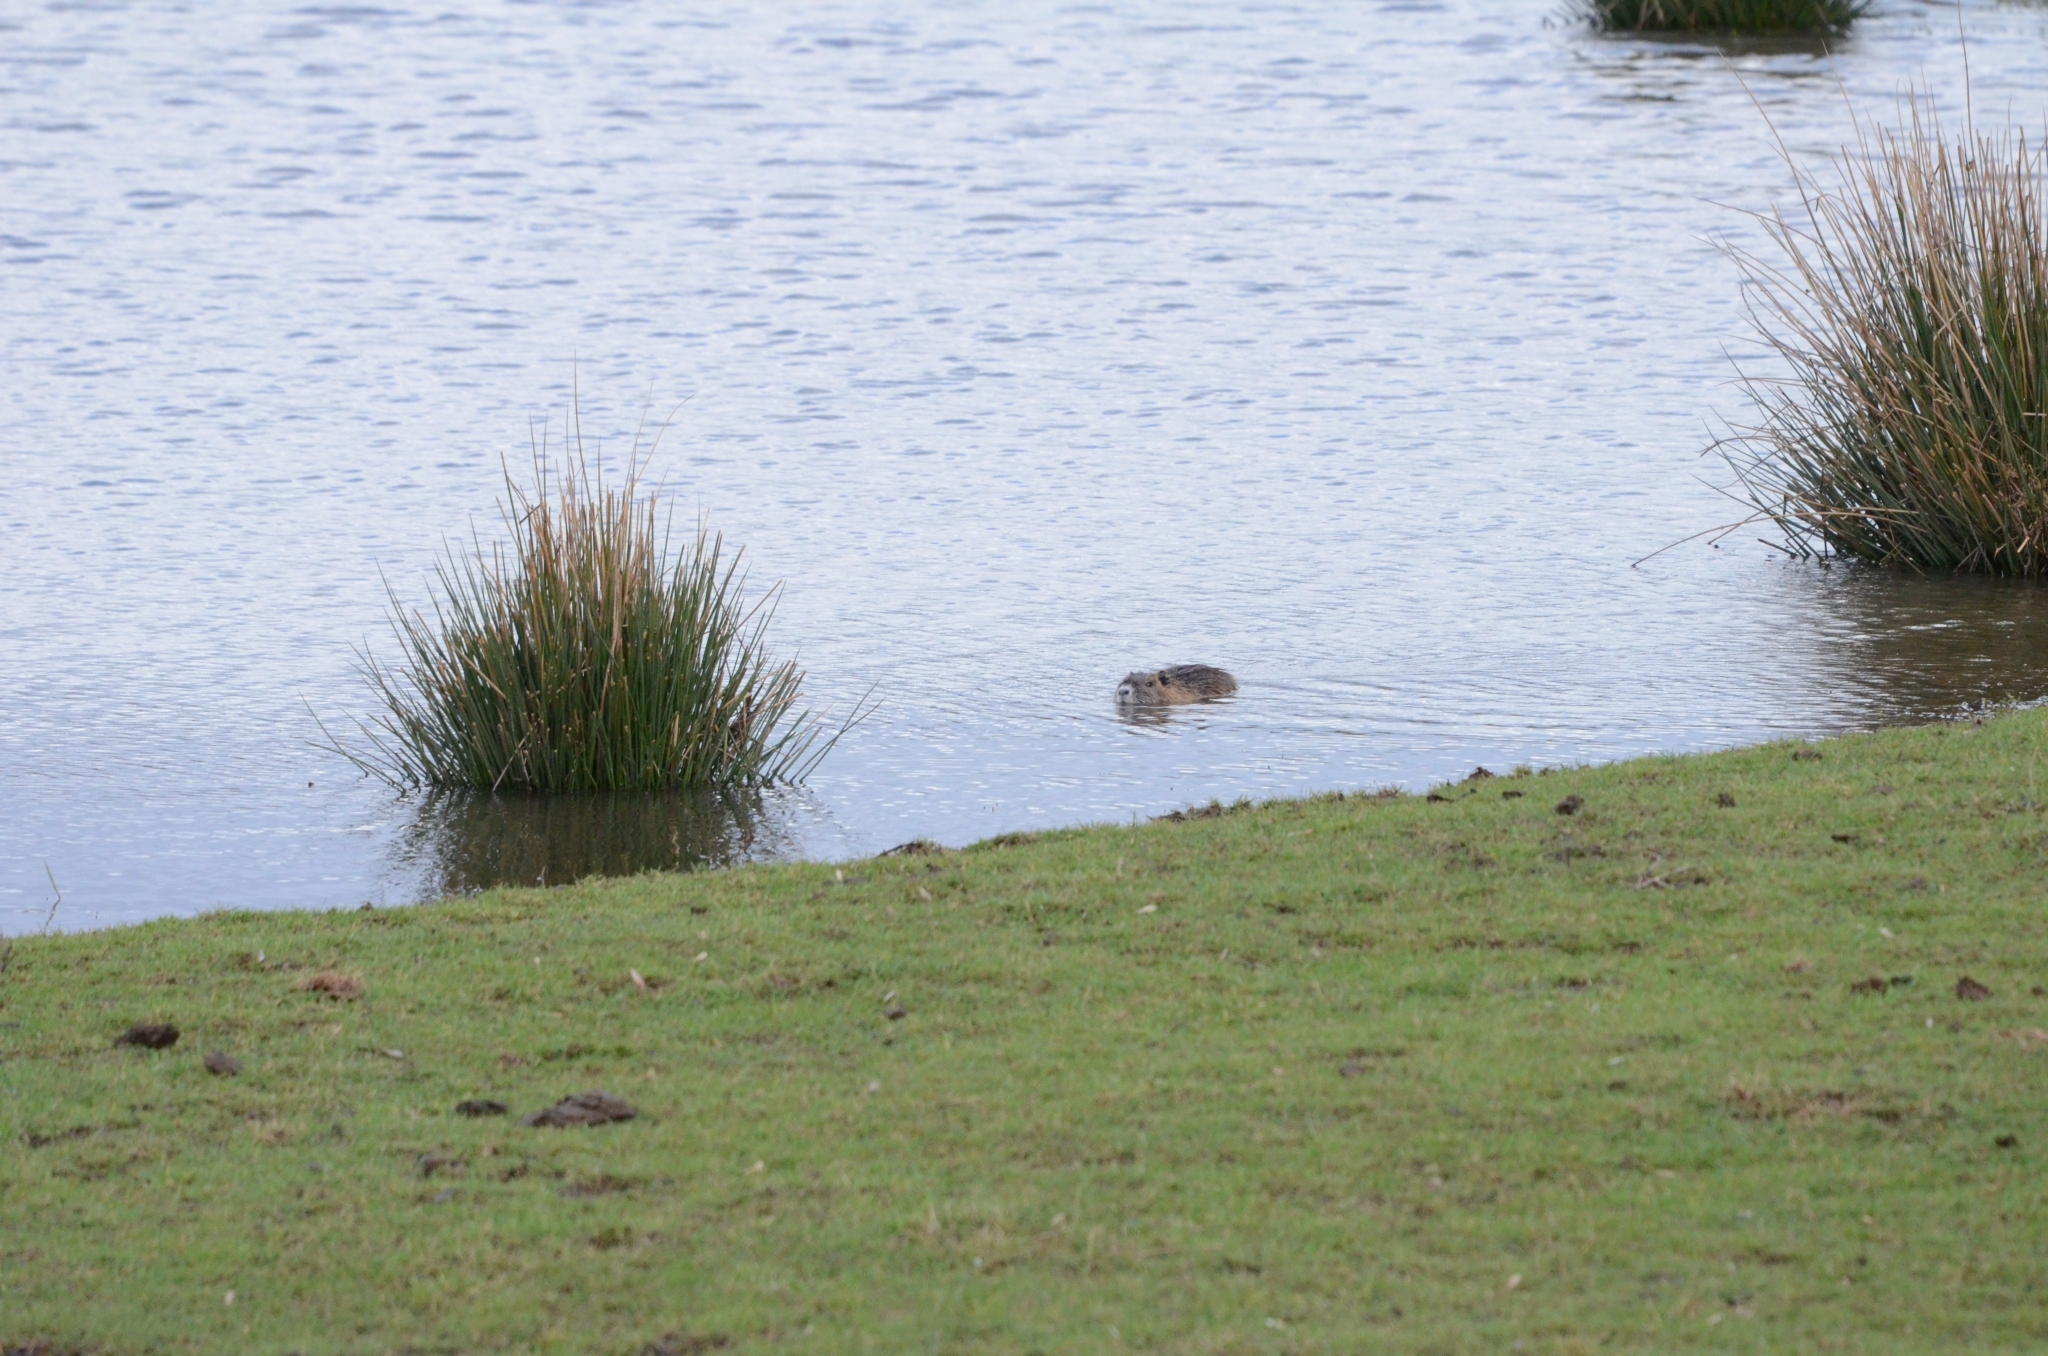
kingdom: Animalia
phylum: Chordata
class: Mammalia
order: Rodentia
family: Myocastoridae
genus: Myocastor
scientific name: Myocastor coypus
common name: Coypu
